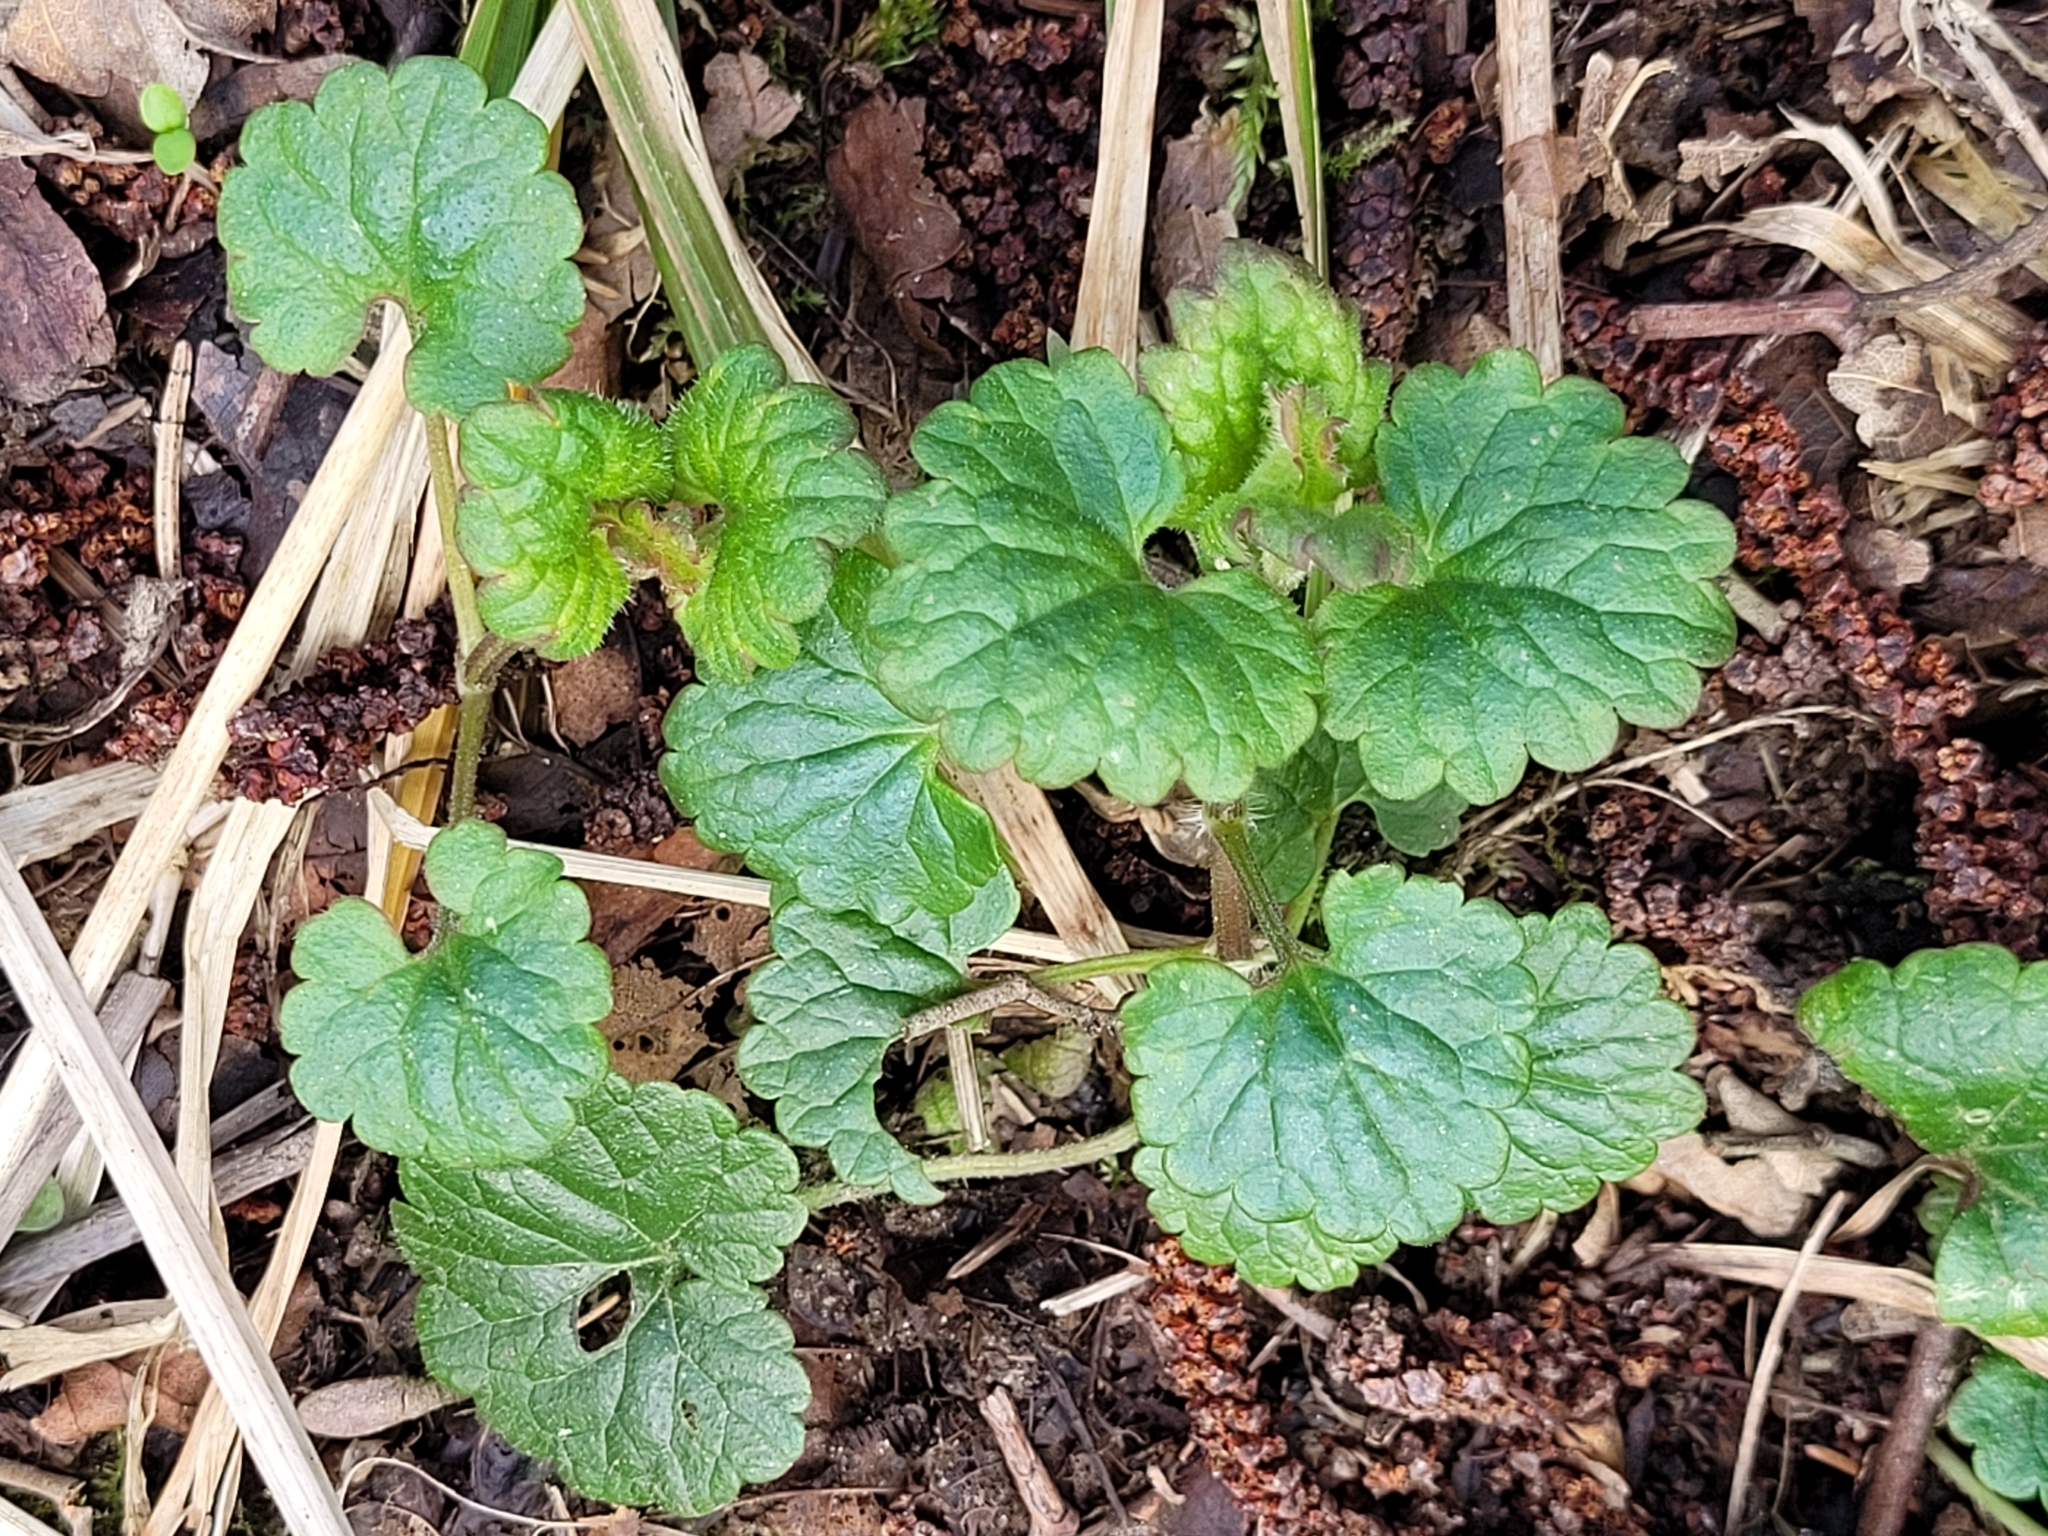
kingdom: Plantae
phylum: Tracheophyta
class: Magnoliopsida
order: Lamiales
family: Lamiaceae
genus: Glechoma
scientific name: Glechoma hederacea
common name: Ground ivy
